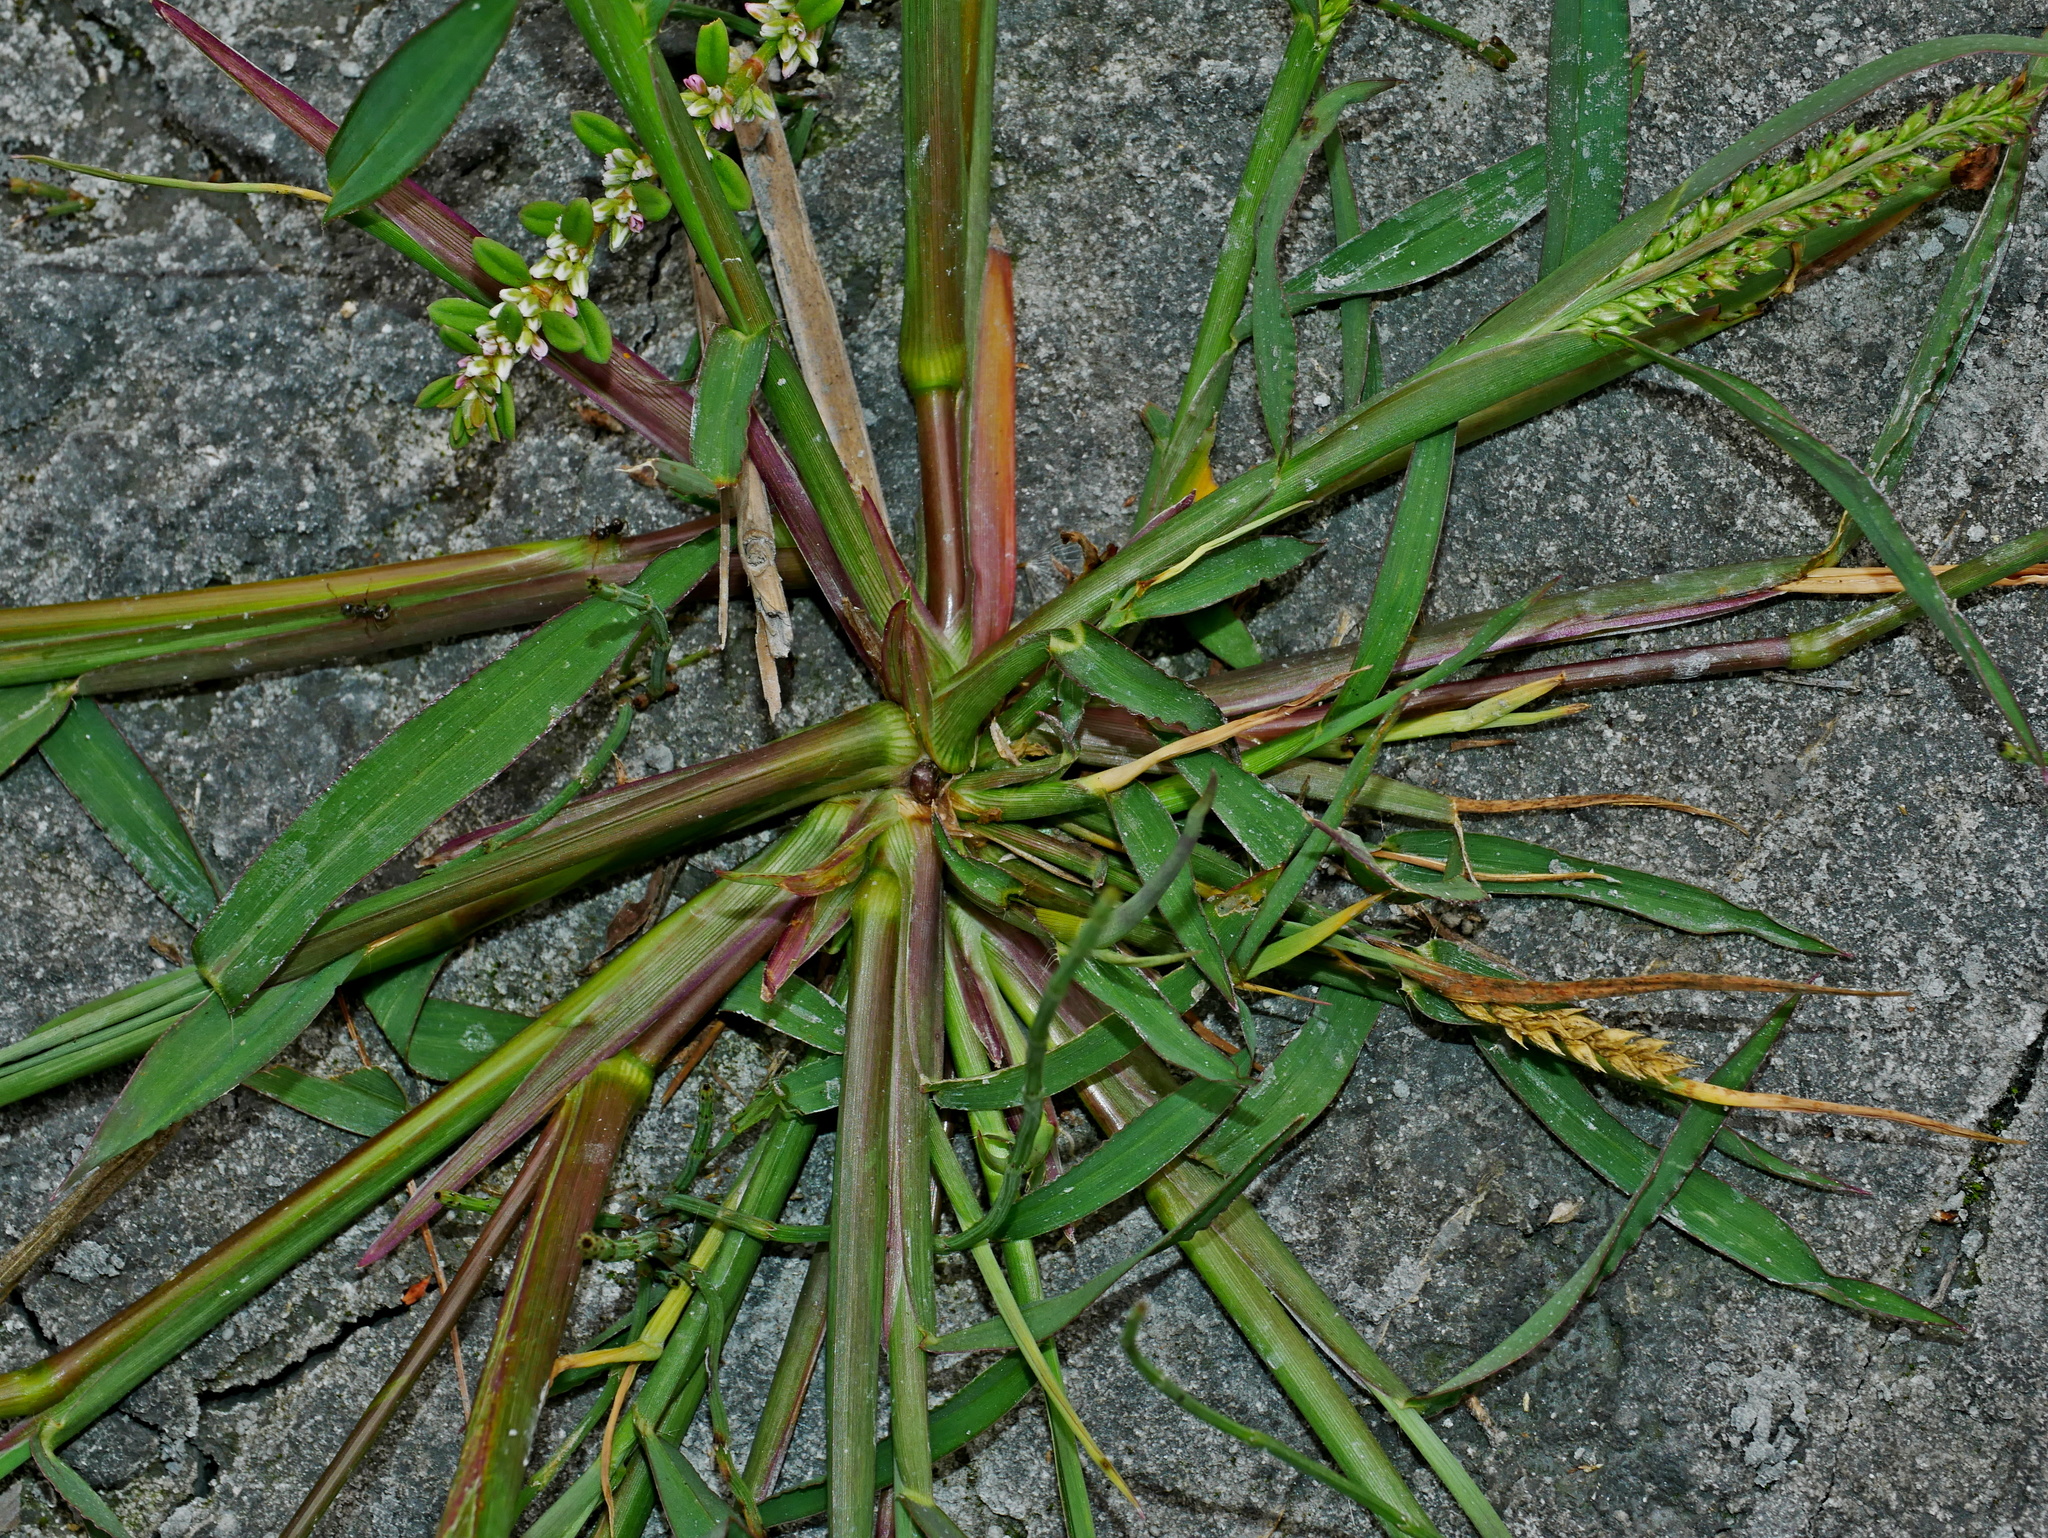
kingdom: Plantae
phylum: Tracheophyta
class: Liliopsida
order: Poales
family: Poaceae
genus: Echinochloa
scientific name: Echinochloa crus-galli
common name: Cockspur
